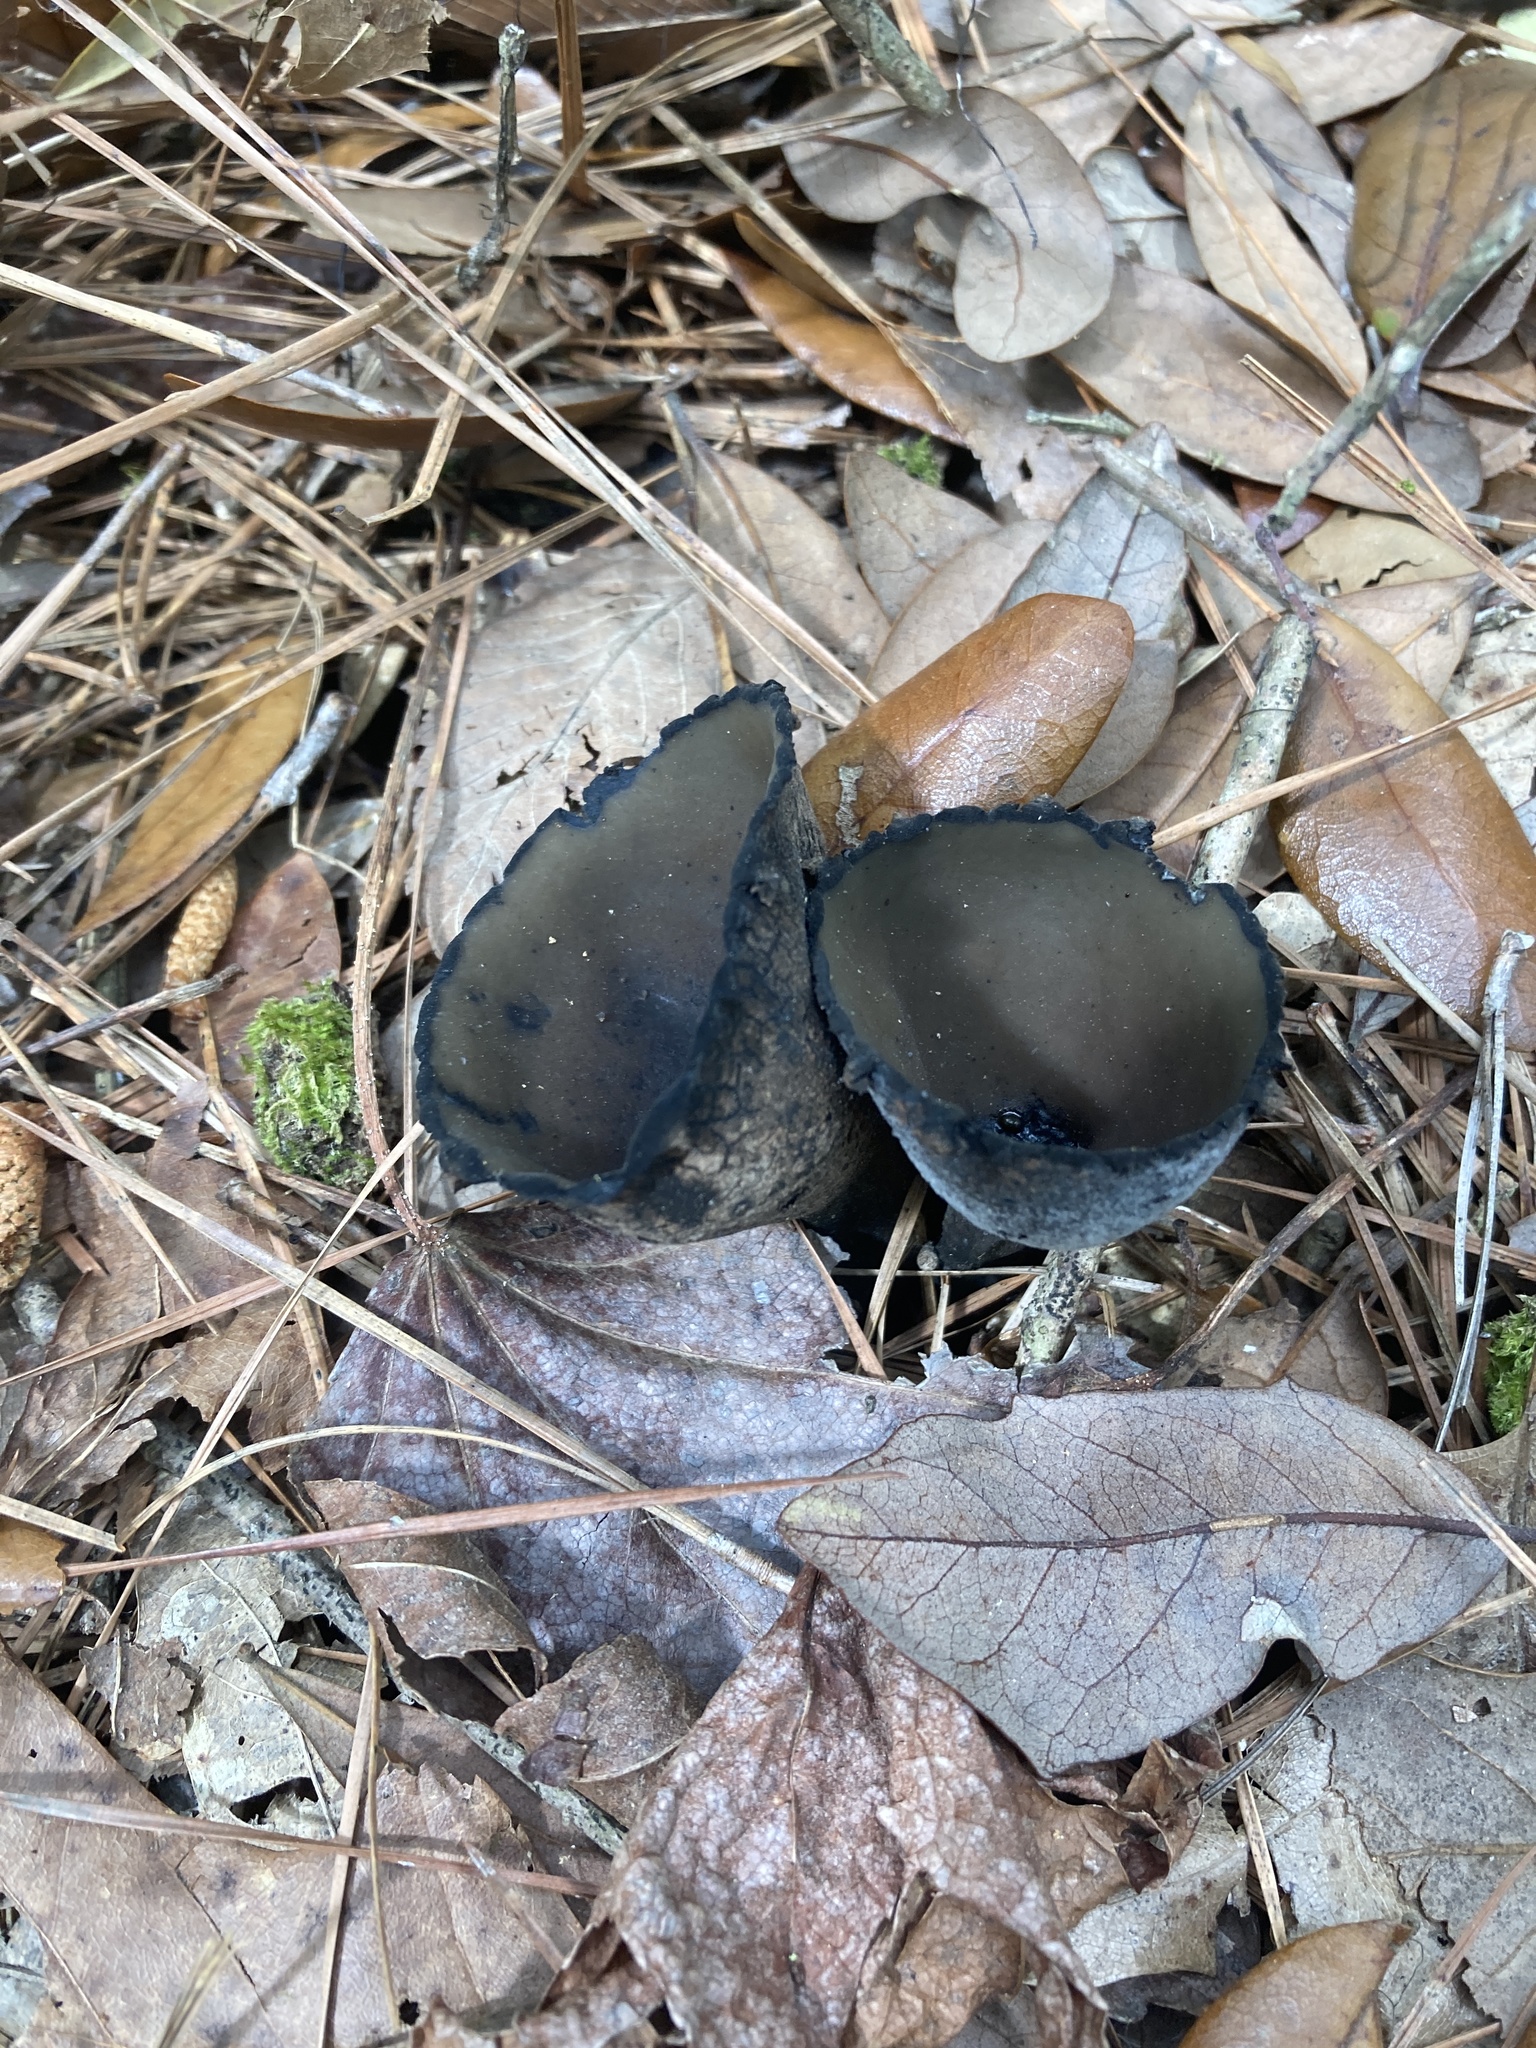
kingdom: Fungi
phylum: Ascomycota
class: Pezizomycetes
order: Pezizales
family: Sarcosomataceae
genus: Urnula
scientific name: Urnula craterium
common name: Devil's urn
